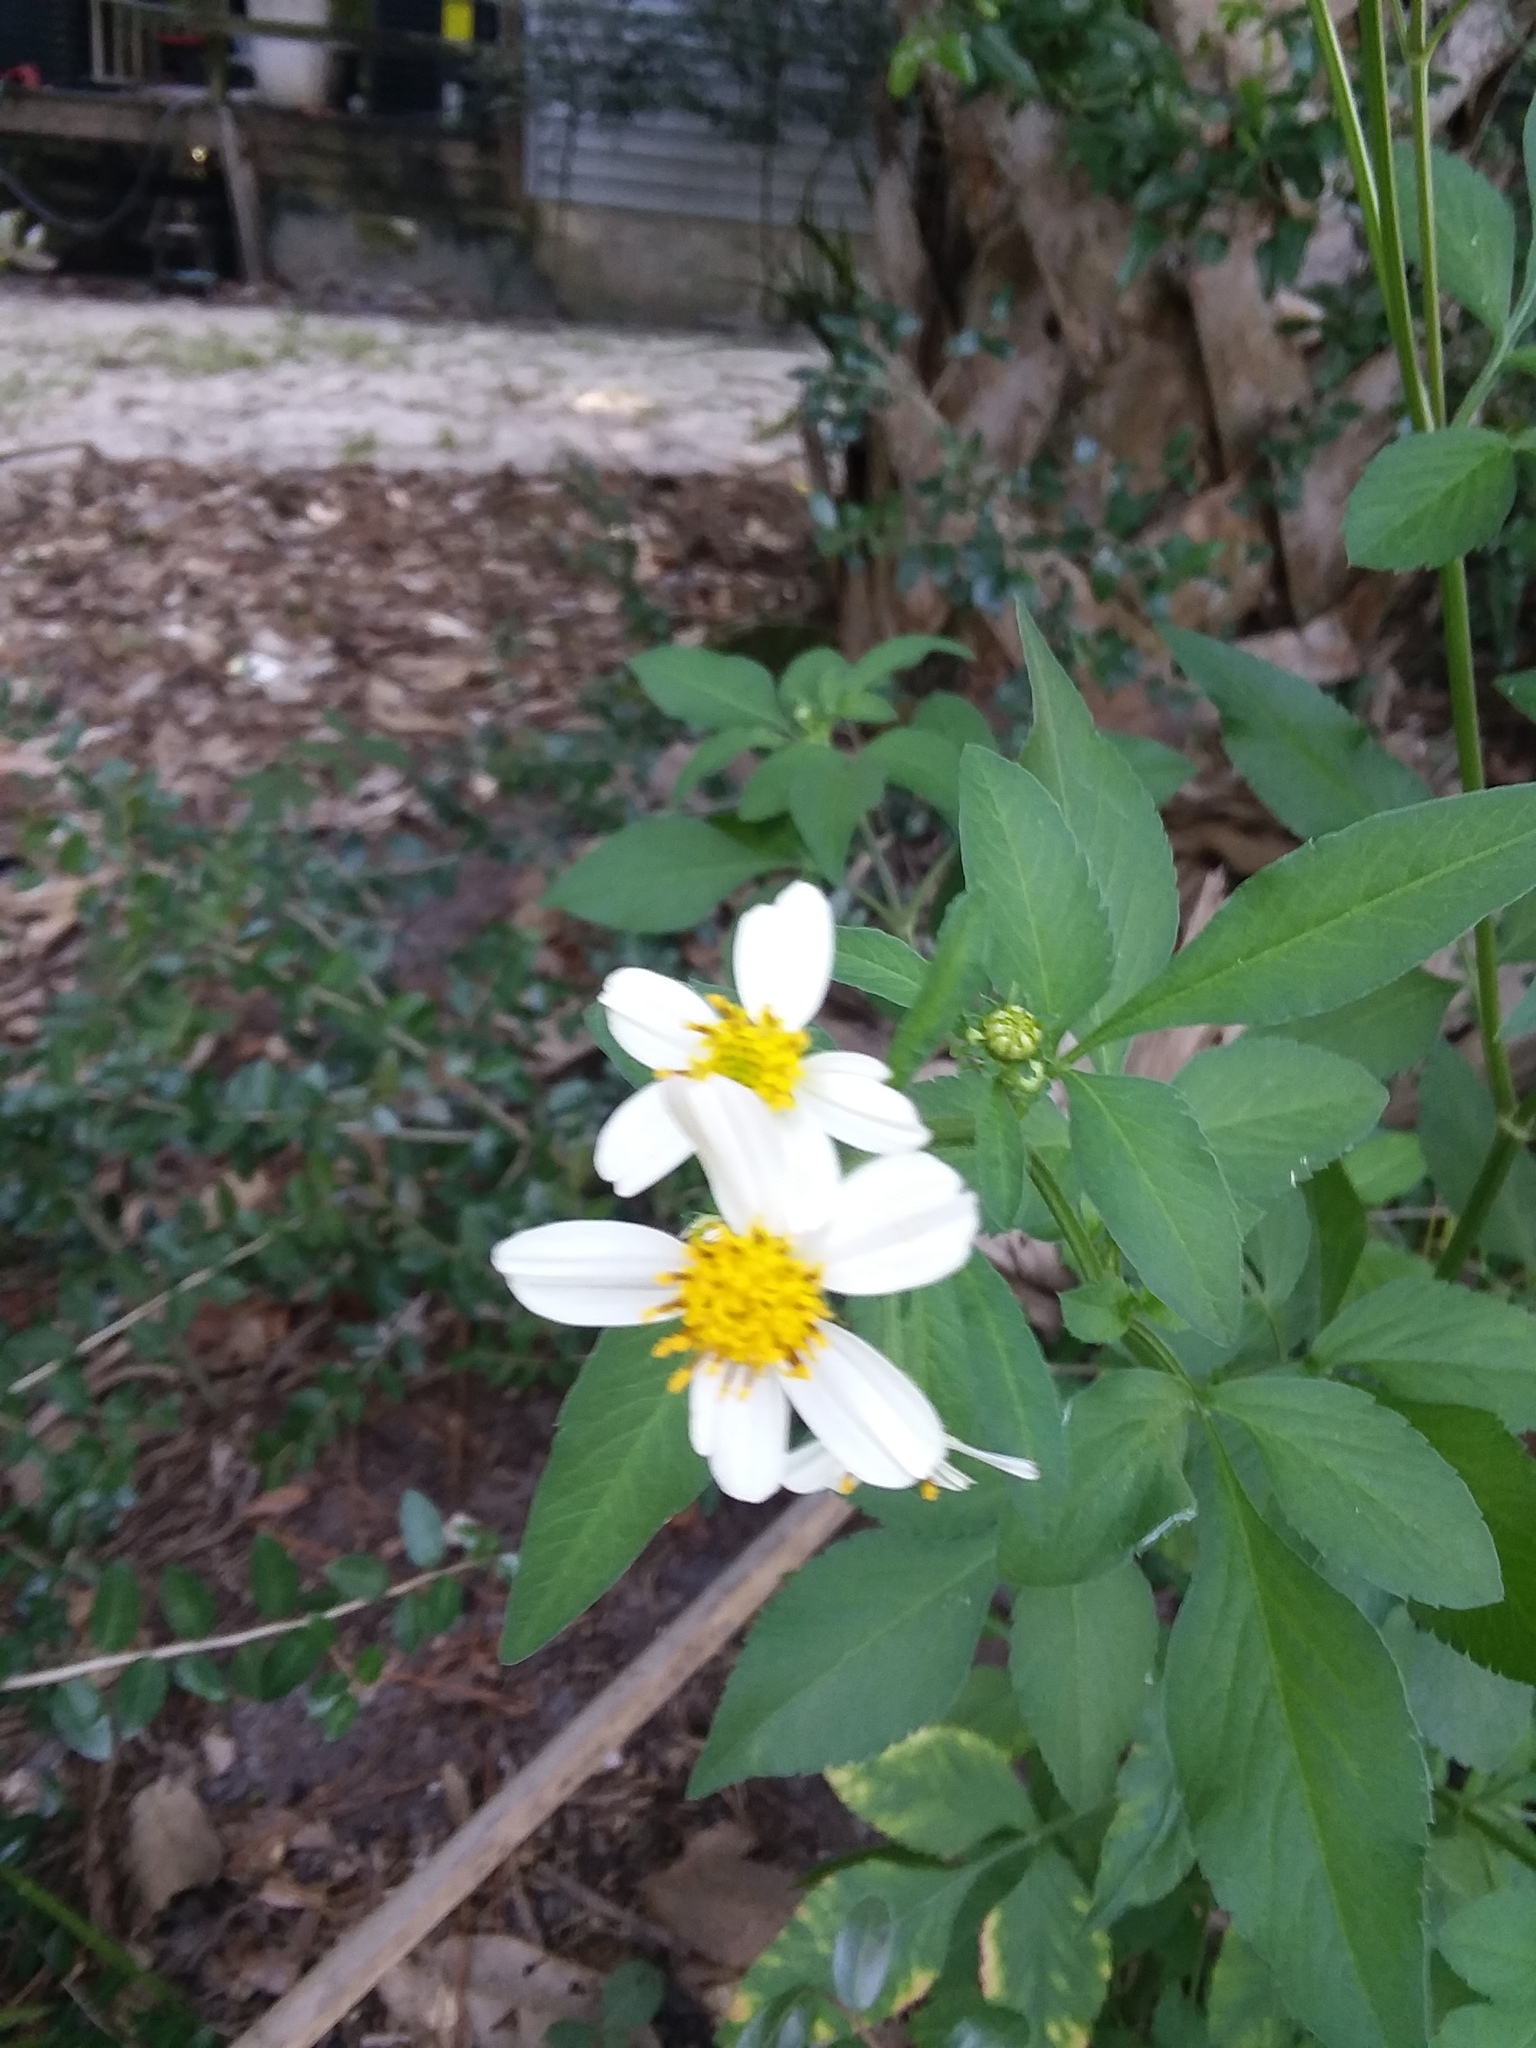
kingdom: Plantae
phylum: Tracheophyta
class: Magnoliopsida
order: Asterales
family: Asteraceae
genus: Bidens
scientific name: Bidens alba
